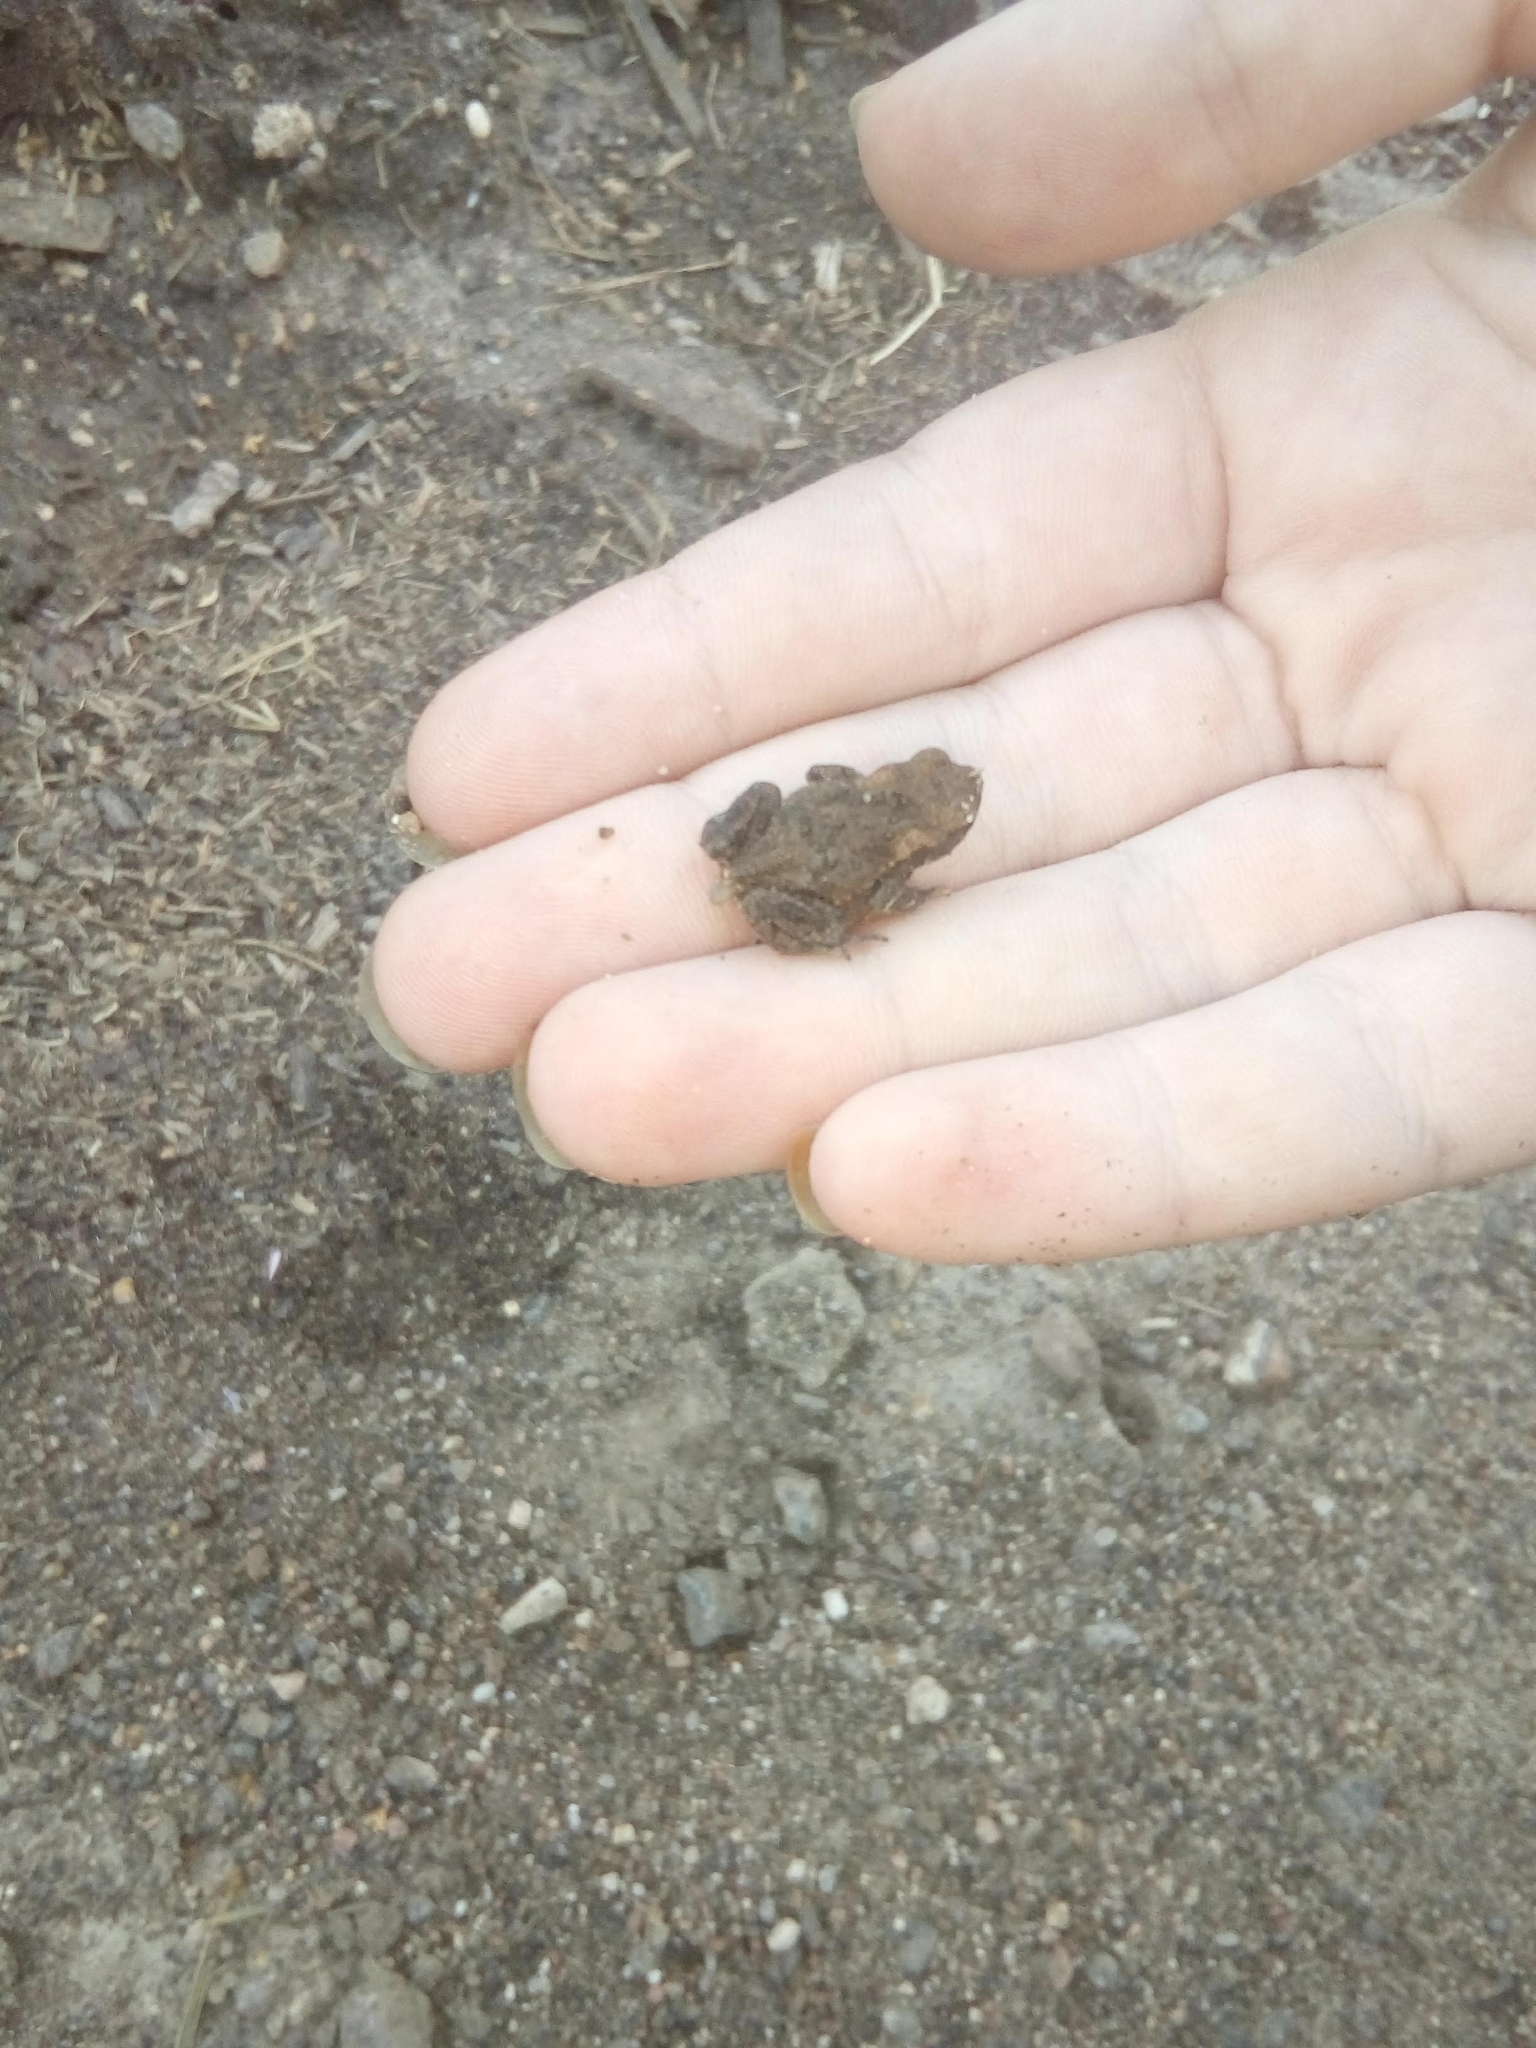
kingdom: Animalia
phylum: Chordata
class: Amphibia
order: Anura
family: Bufonidae
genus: Bufo
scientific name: Bufo bufo
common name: Common toad
